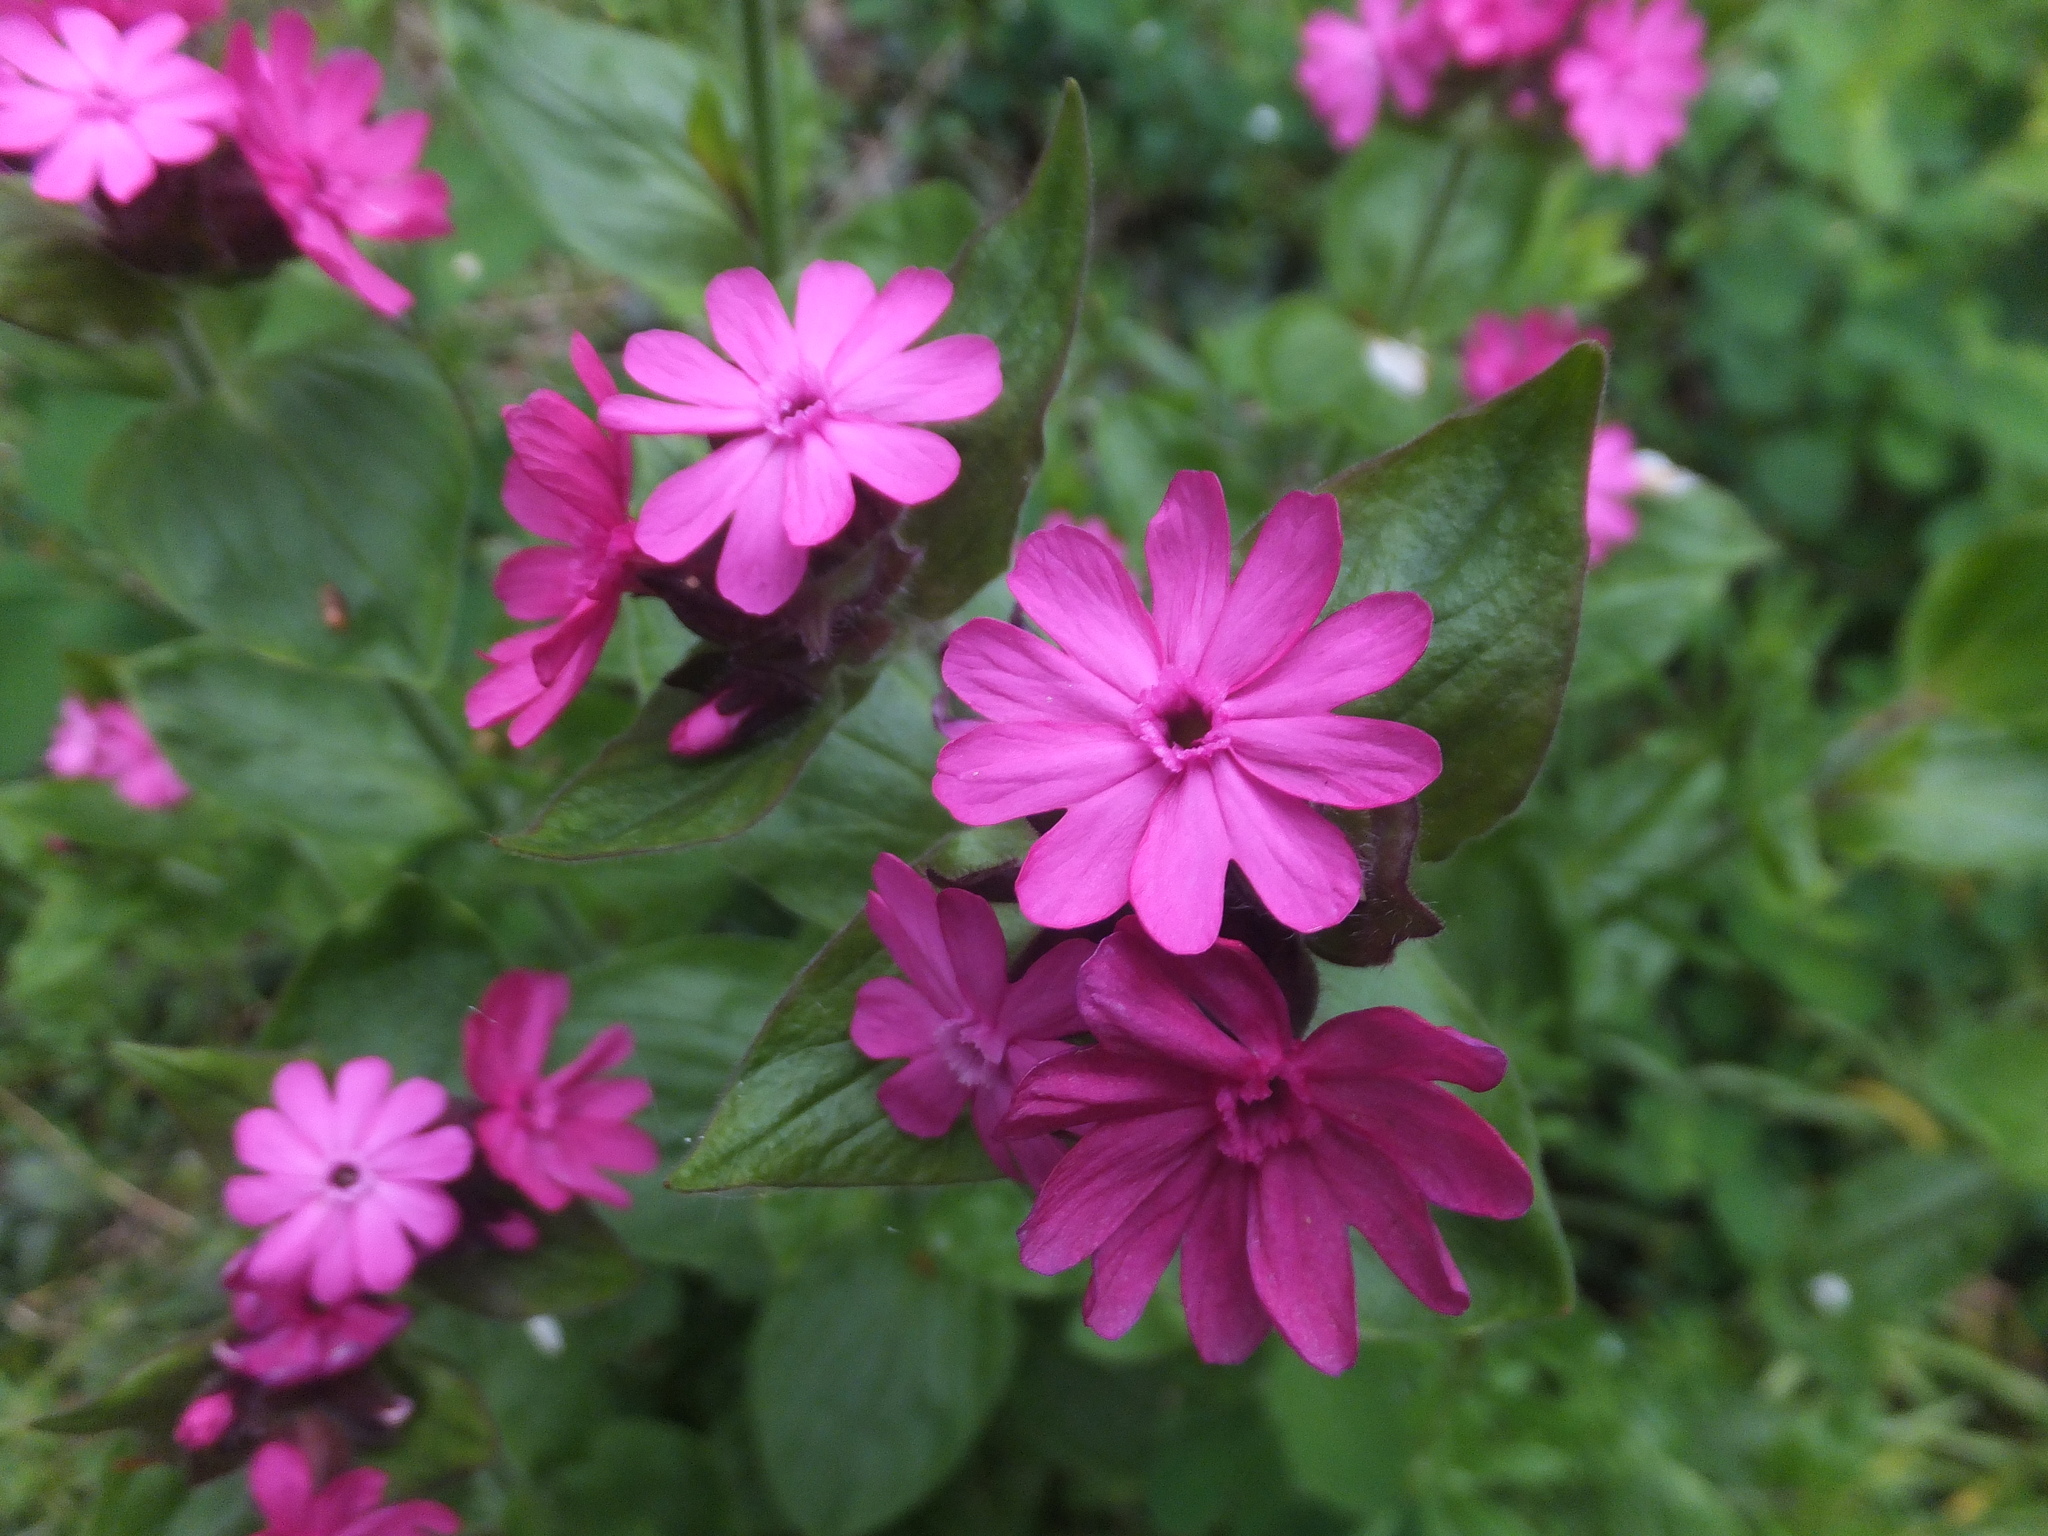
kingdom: Plantae
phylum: Tracheophyta
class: Magnoliopsida
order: Caryophyllales
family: Caryophyllaceae
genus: Silene
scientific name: Silene dioica
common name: Red campion
